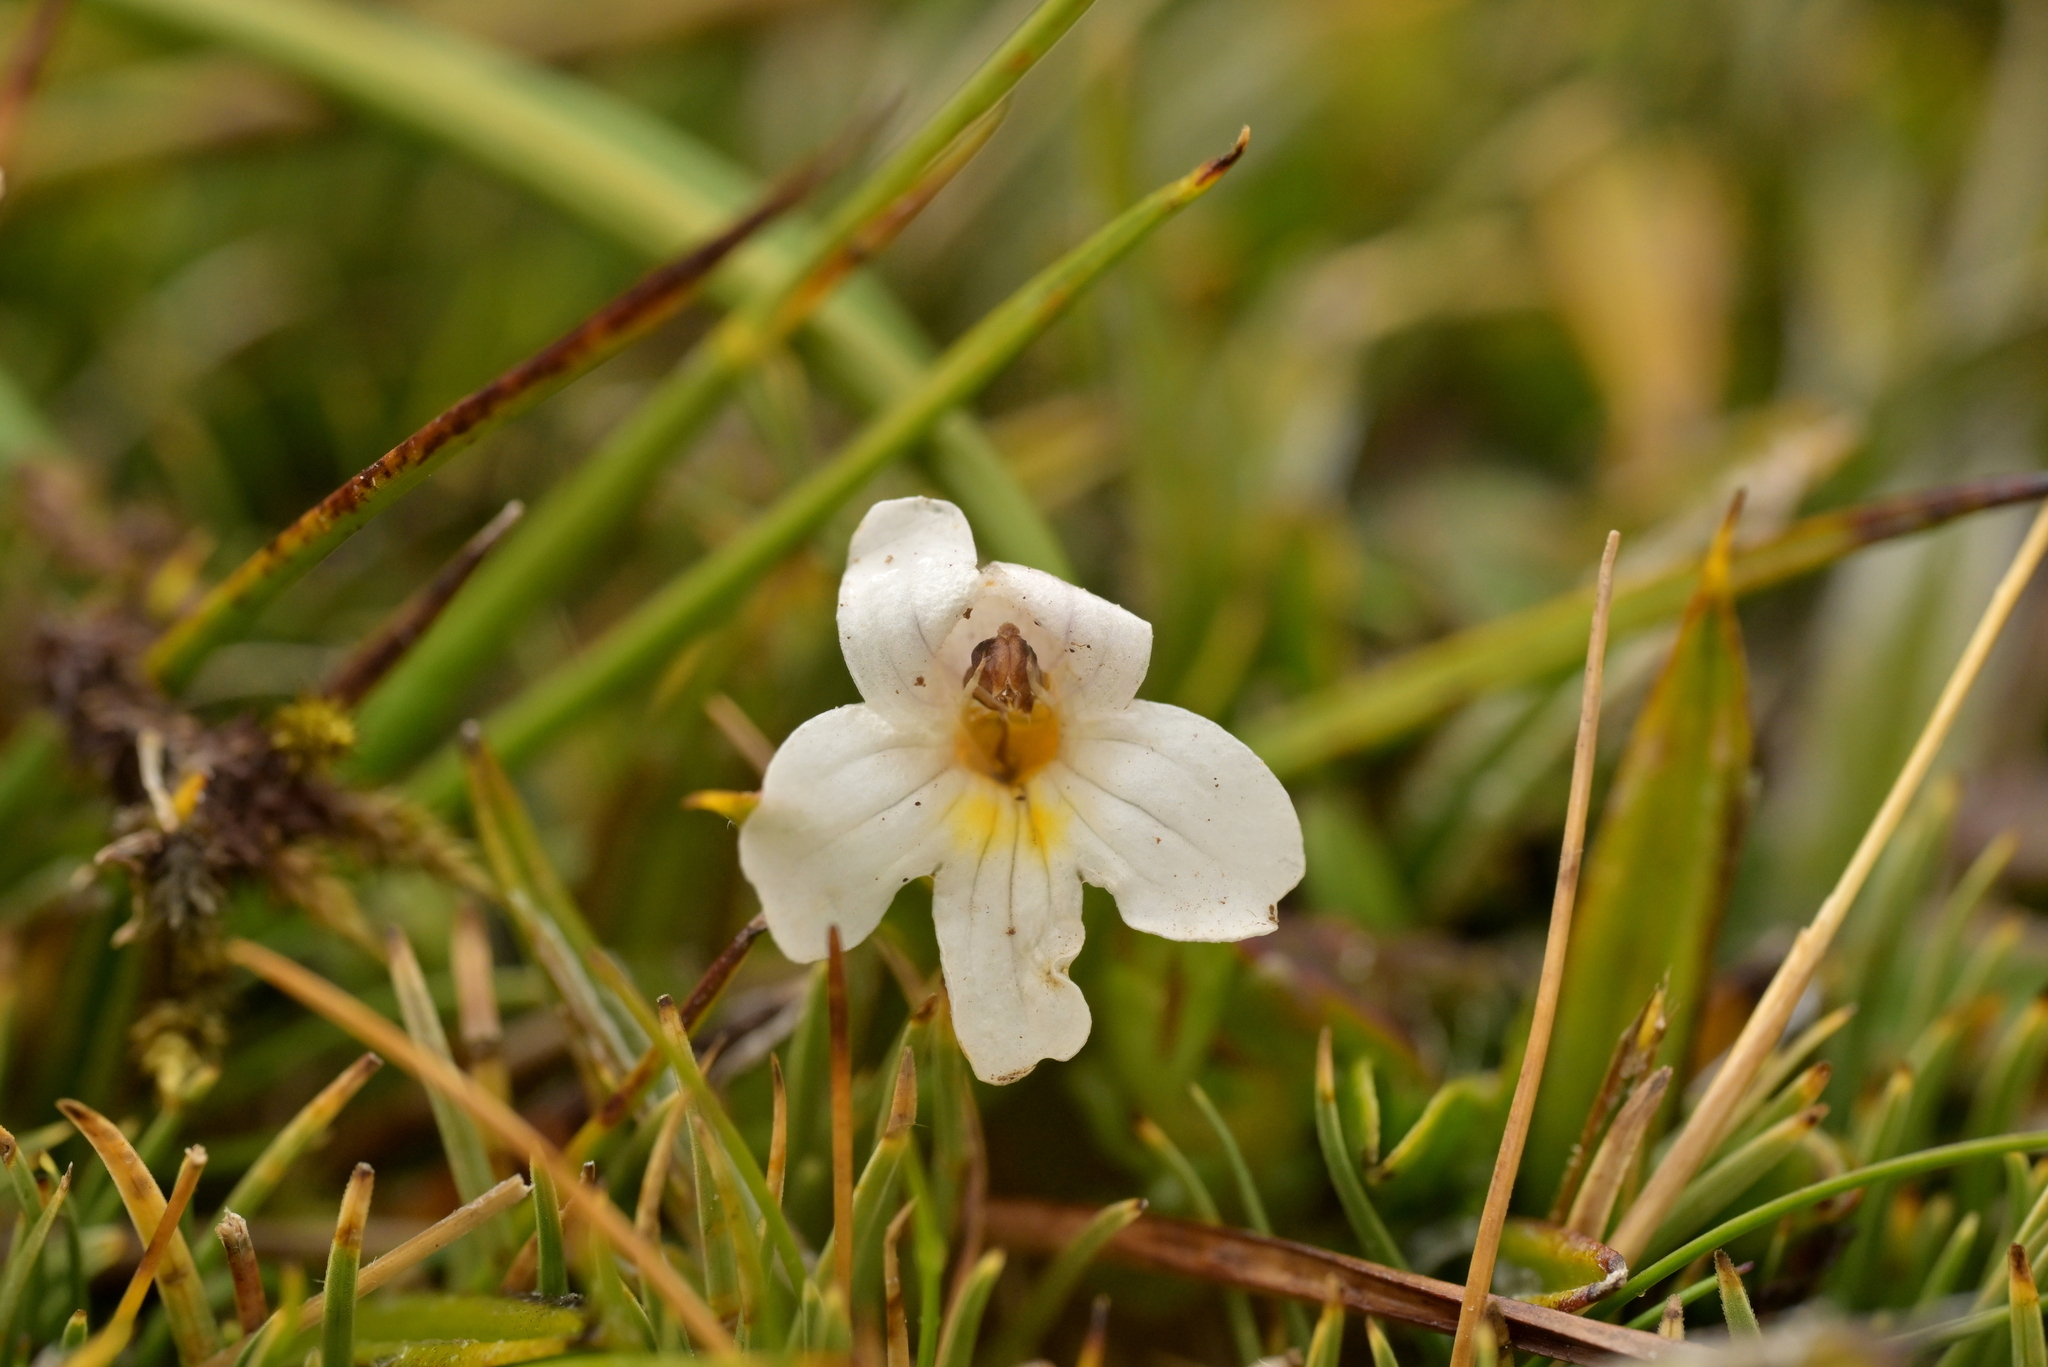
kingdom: Plantae
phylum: Tracheophyta
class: Magnoliopsida
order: Lamiales
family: Orobanchaceae
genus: Euphrasia
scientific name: Euphrasia revoluta
